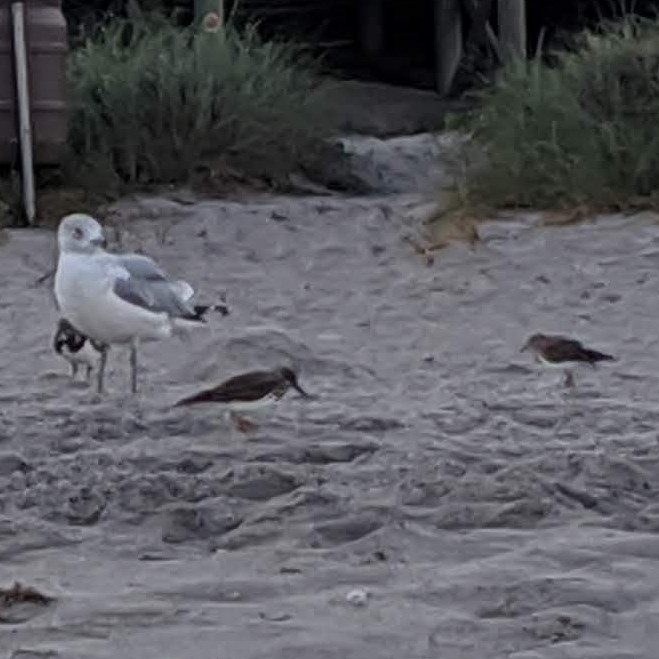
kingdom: Animalia
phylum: Chordata
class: Aves
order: Charadriiformes
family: Scolopacidae
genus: Calidris
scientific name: Calidris minutilla
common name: Least sandpiper
